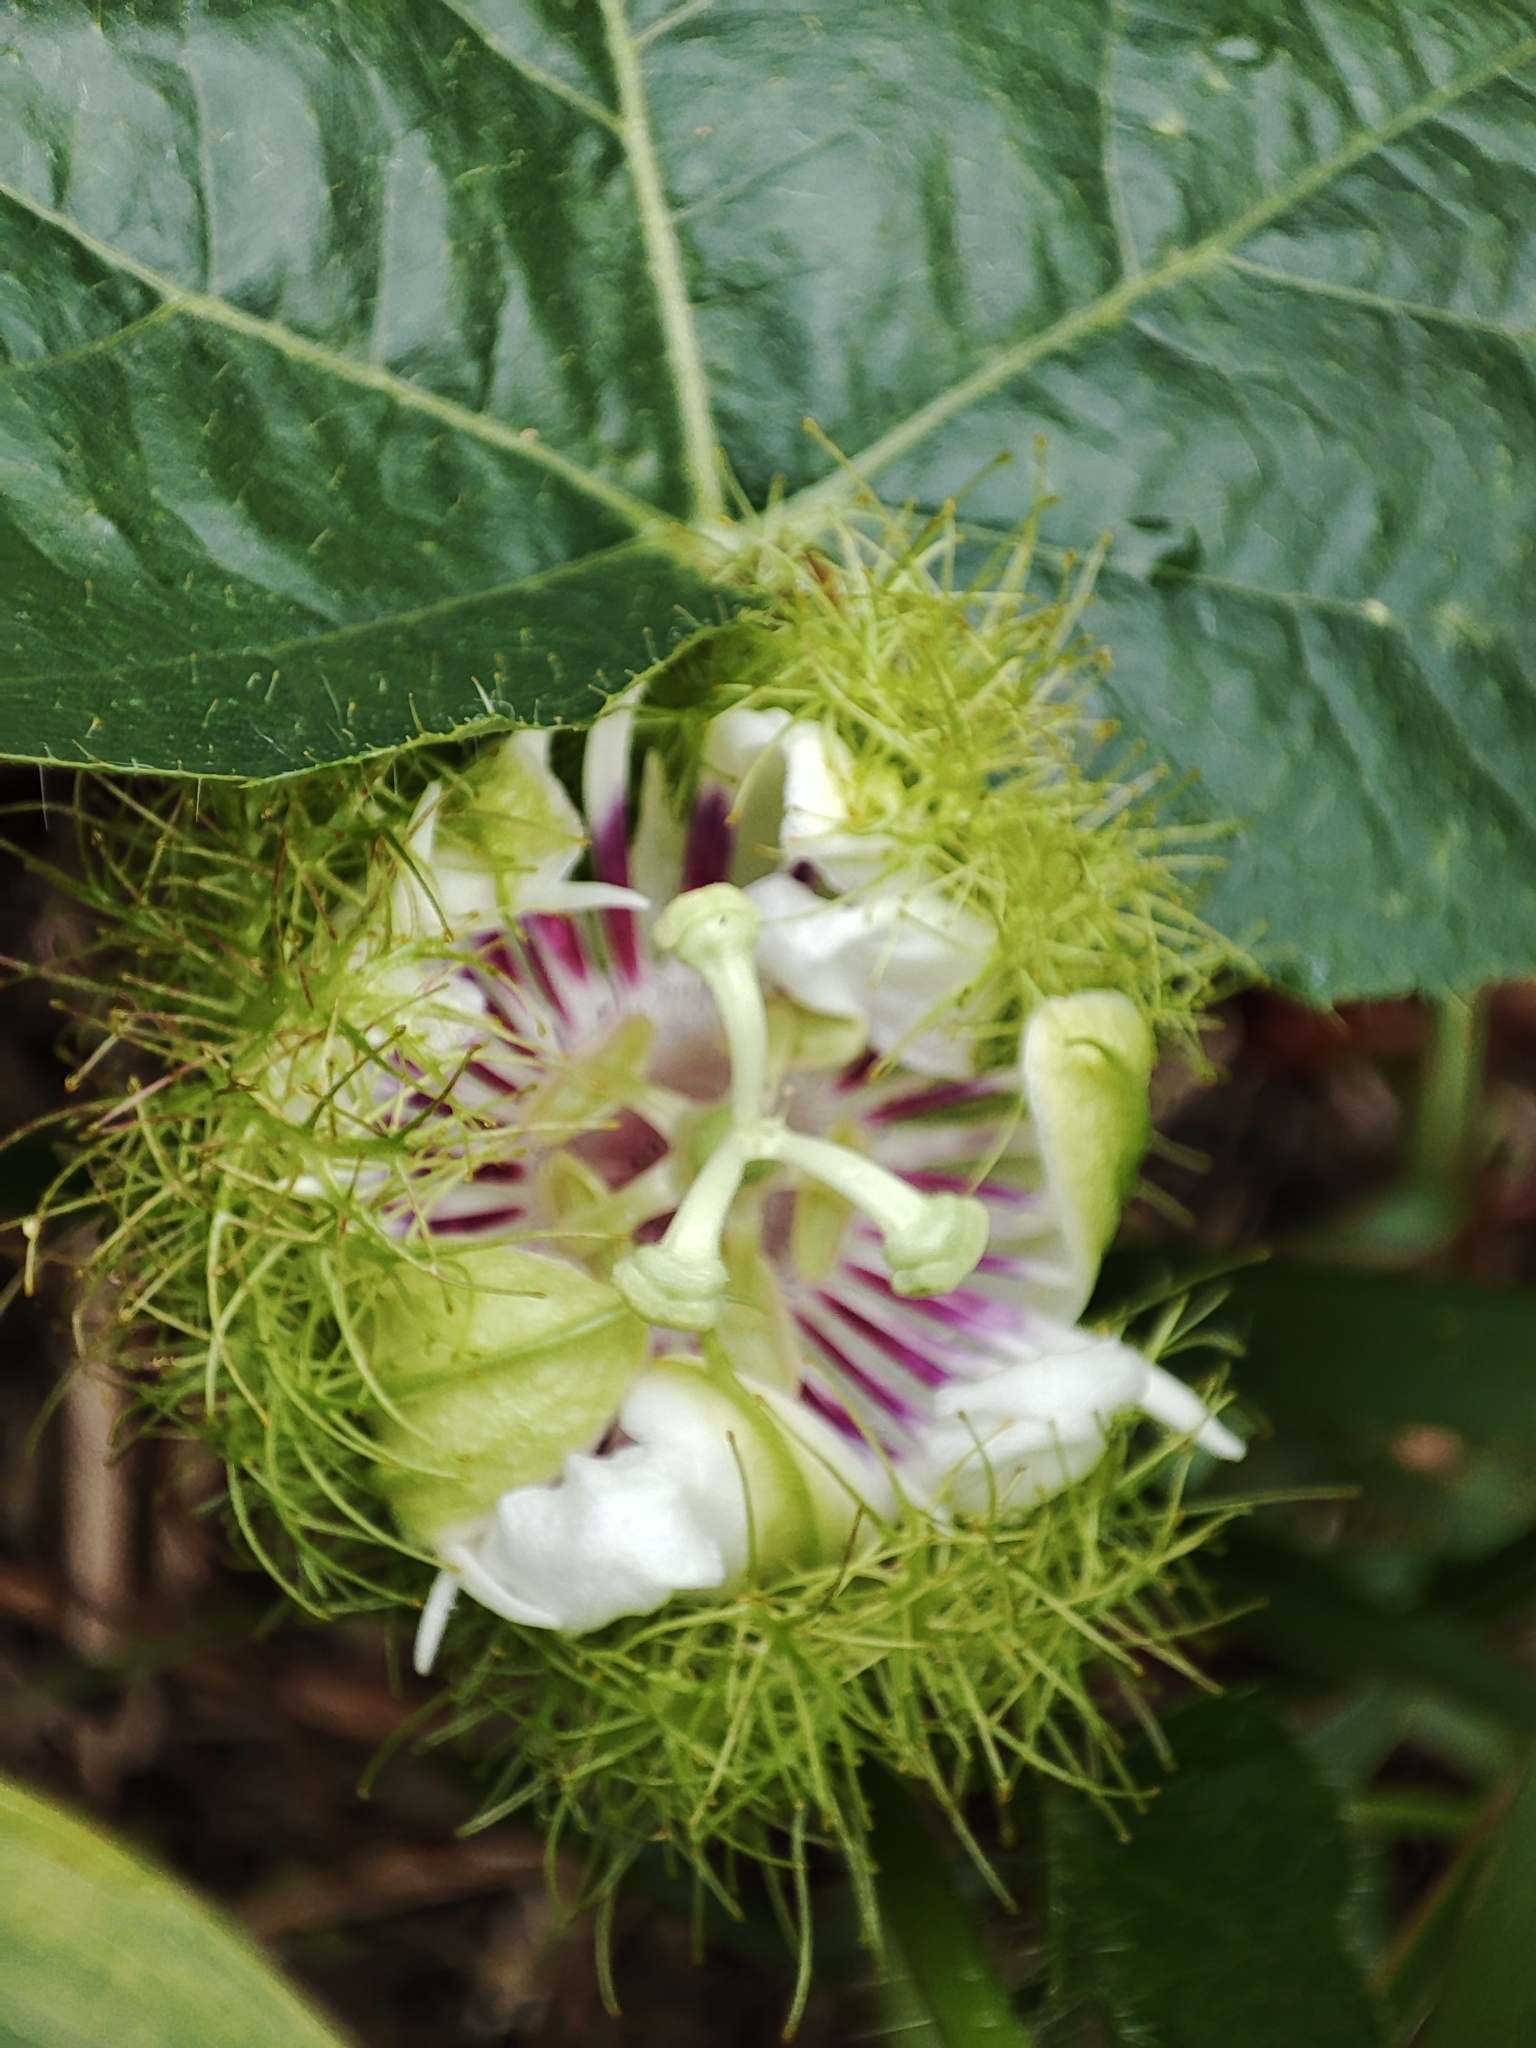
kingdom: Plantae
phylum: Tracheophyta
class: Magnoliopsida
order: Malpighiales
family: Passifloraceae
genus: Passiflora
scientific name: Passiflora foetida
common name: Fetid passionflower
